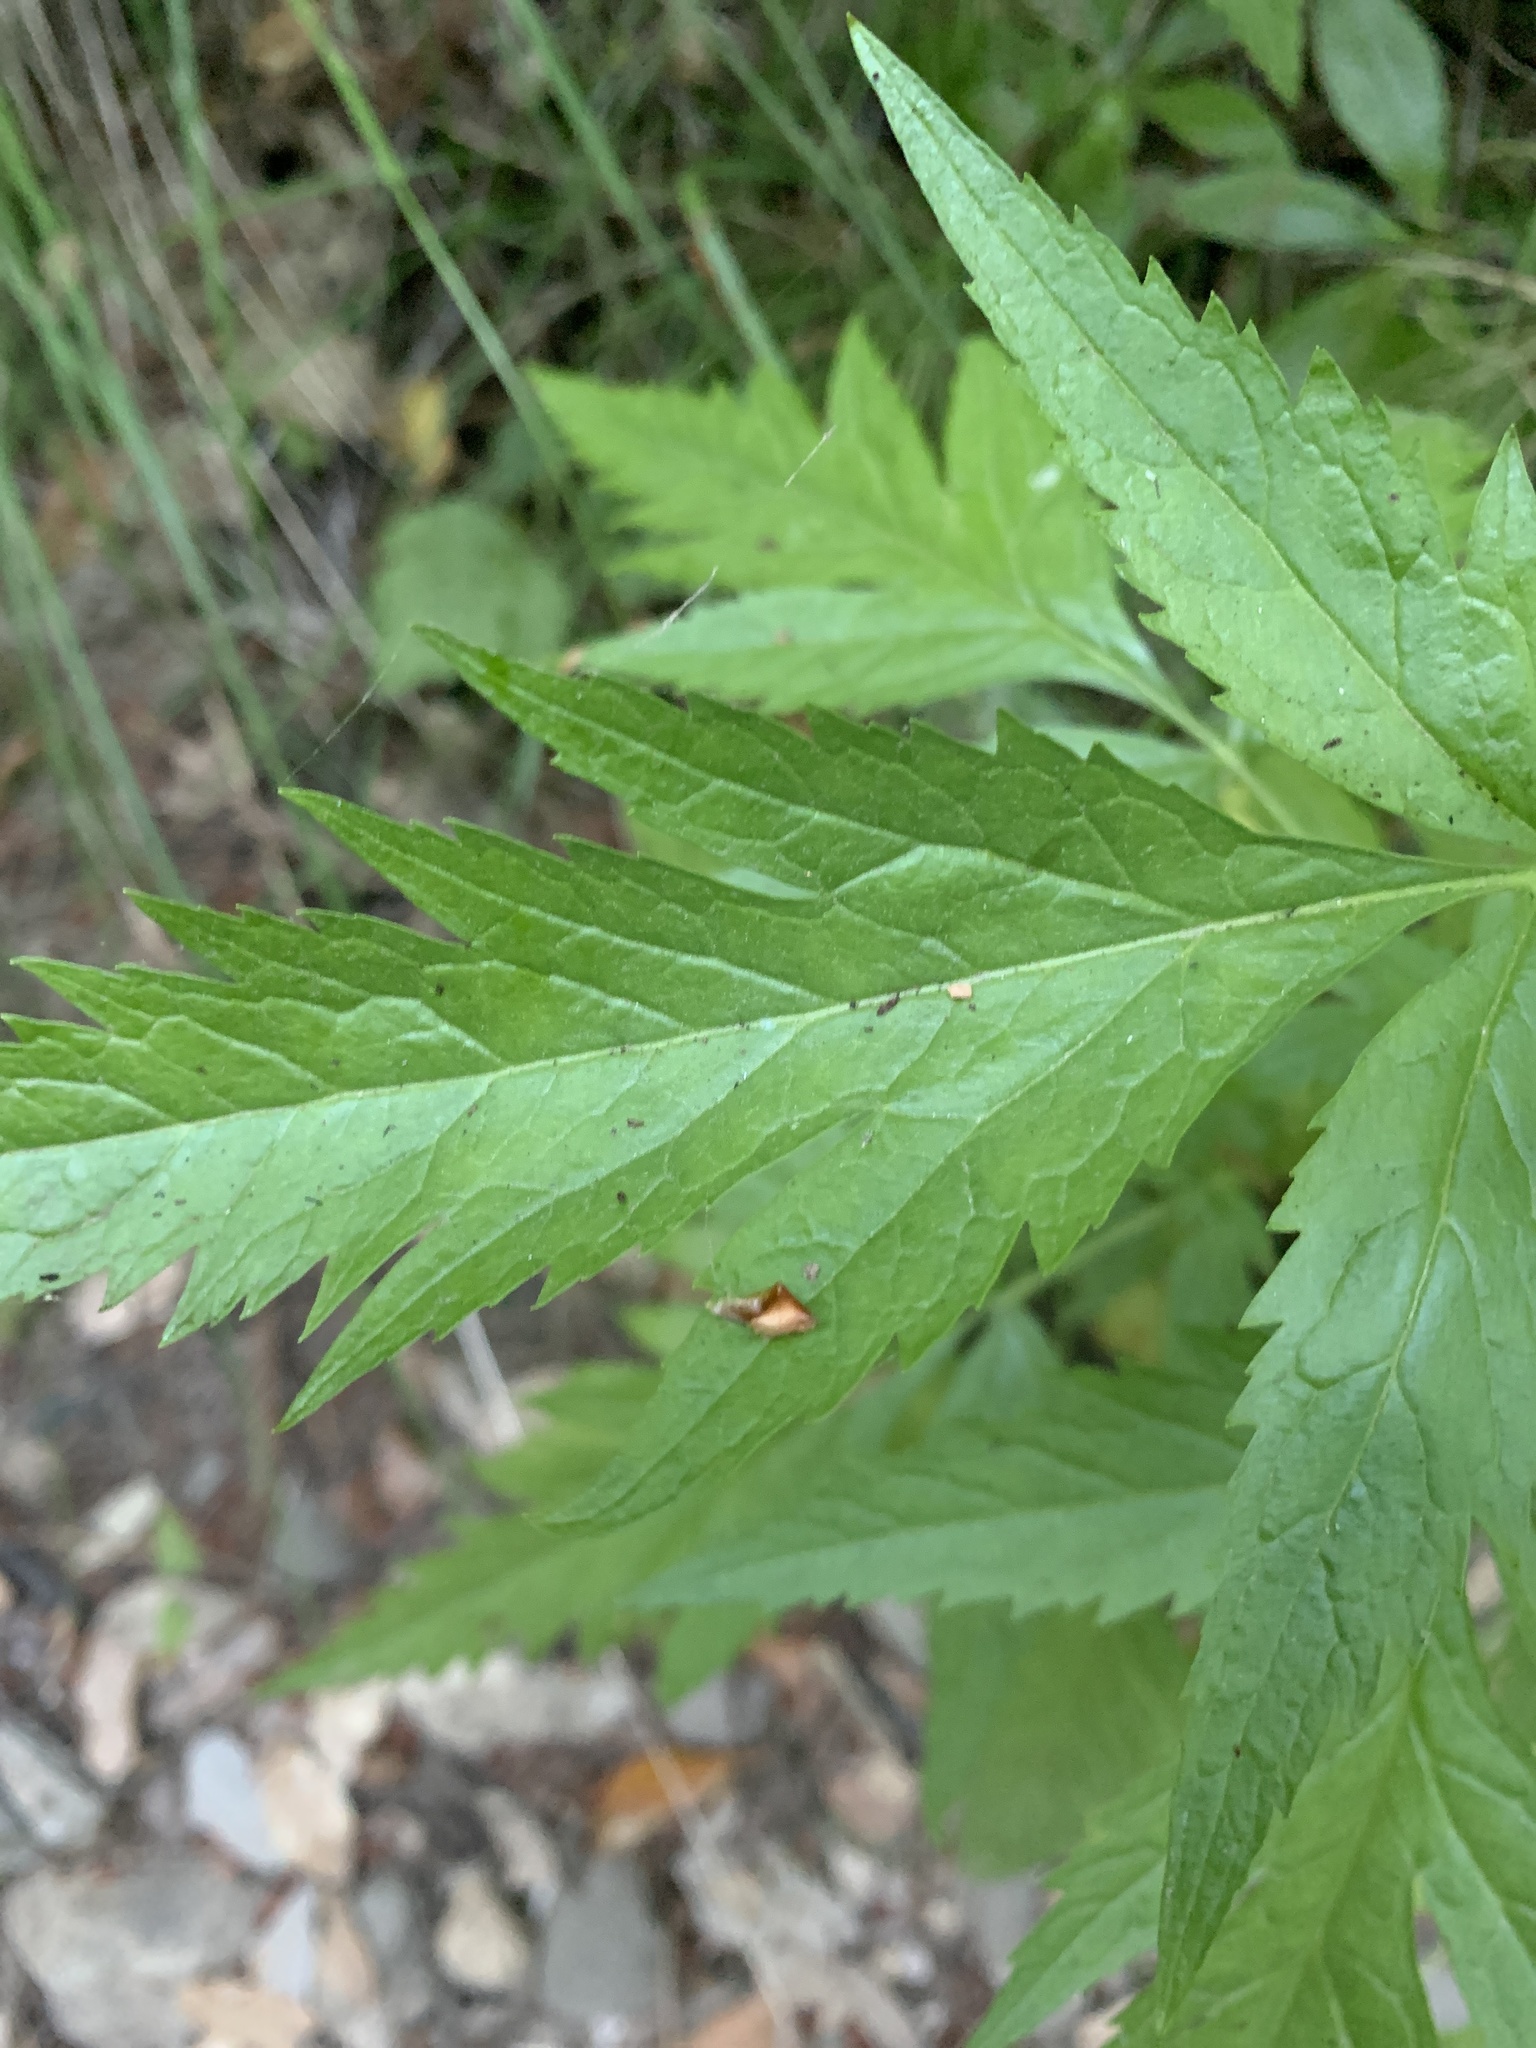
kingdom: Plantae
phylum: Tracheophyta
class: Magnoliopsida
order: Cucurbitales
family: Datiscaceae
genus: Datisca
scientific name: Datisca glomerata
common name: Durango-root
